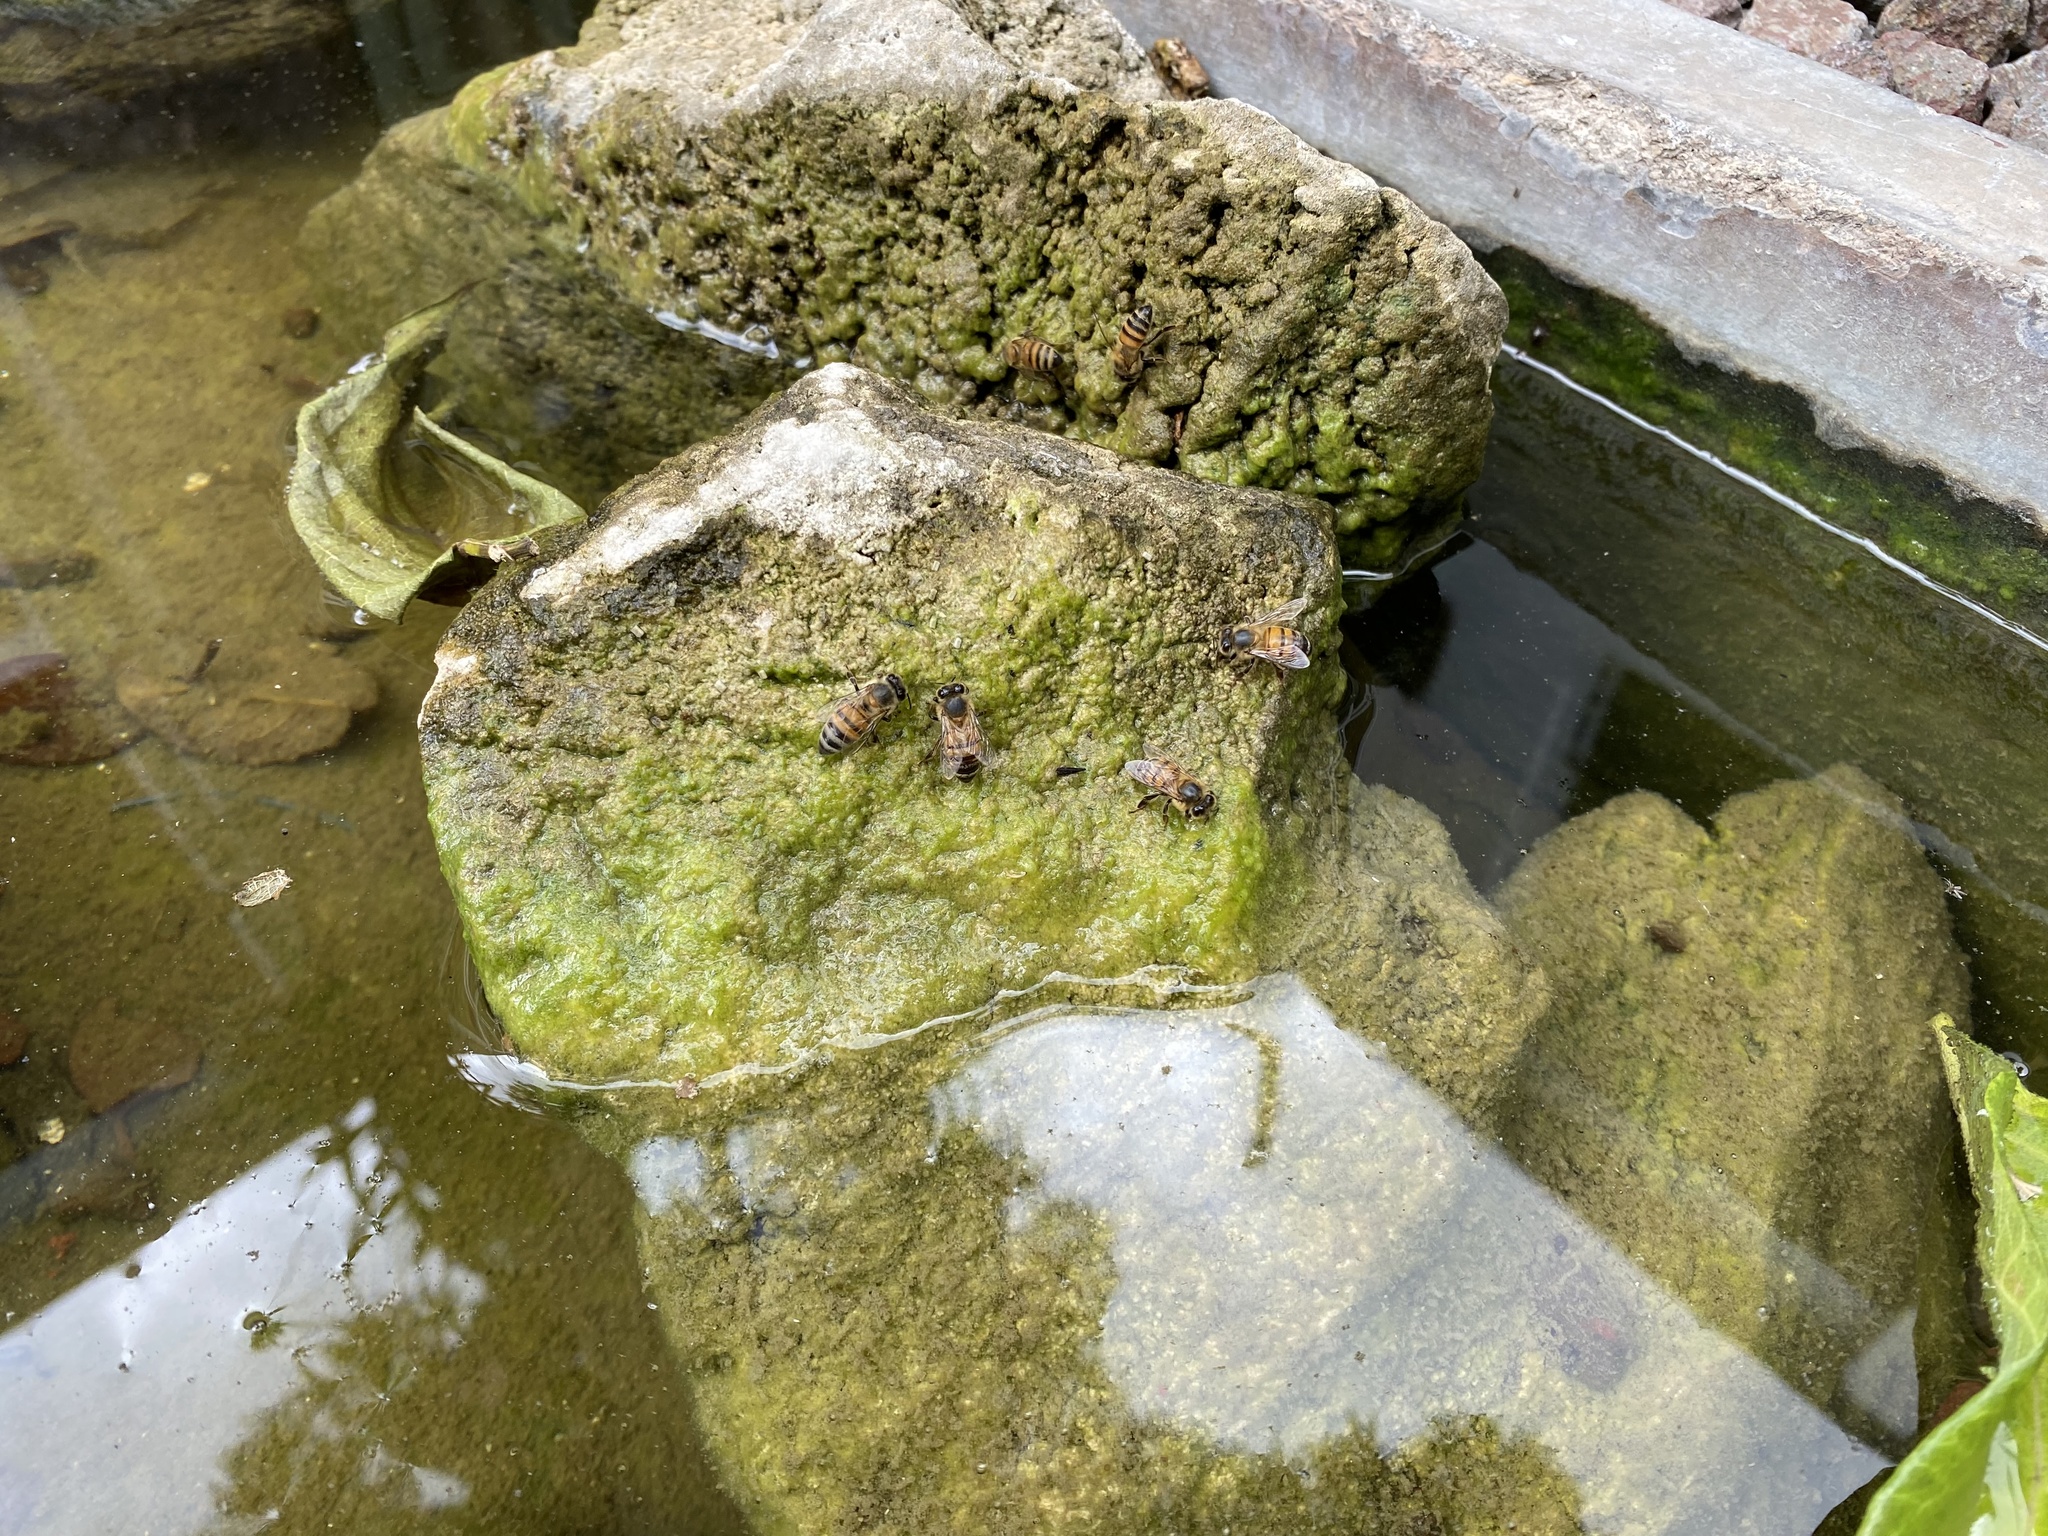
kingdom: Animalia
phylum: Arthropoda
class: Insecta
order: Hymenoptera
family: Apidae
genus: Apis
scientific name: Apis mellifera
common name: Honey bee
